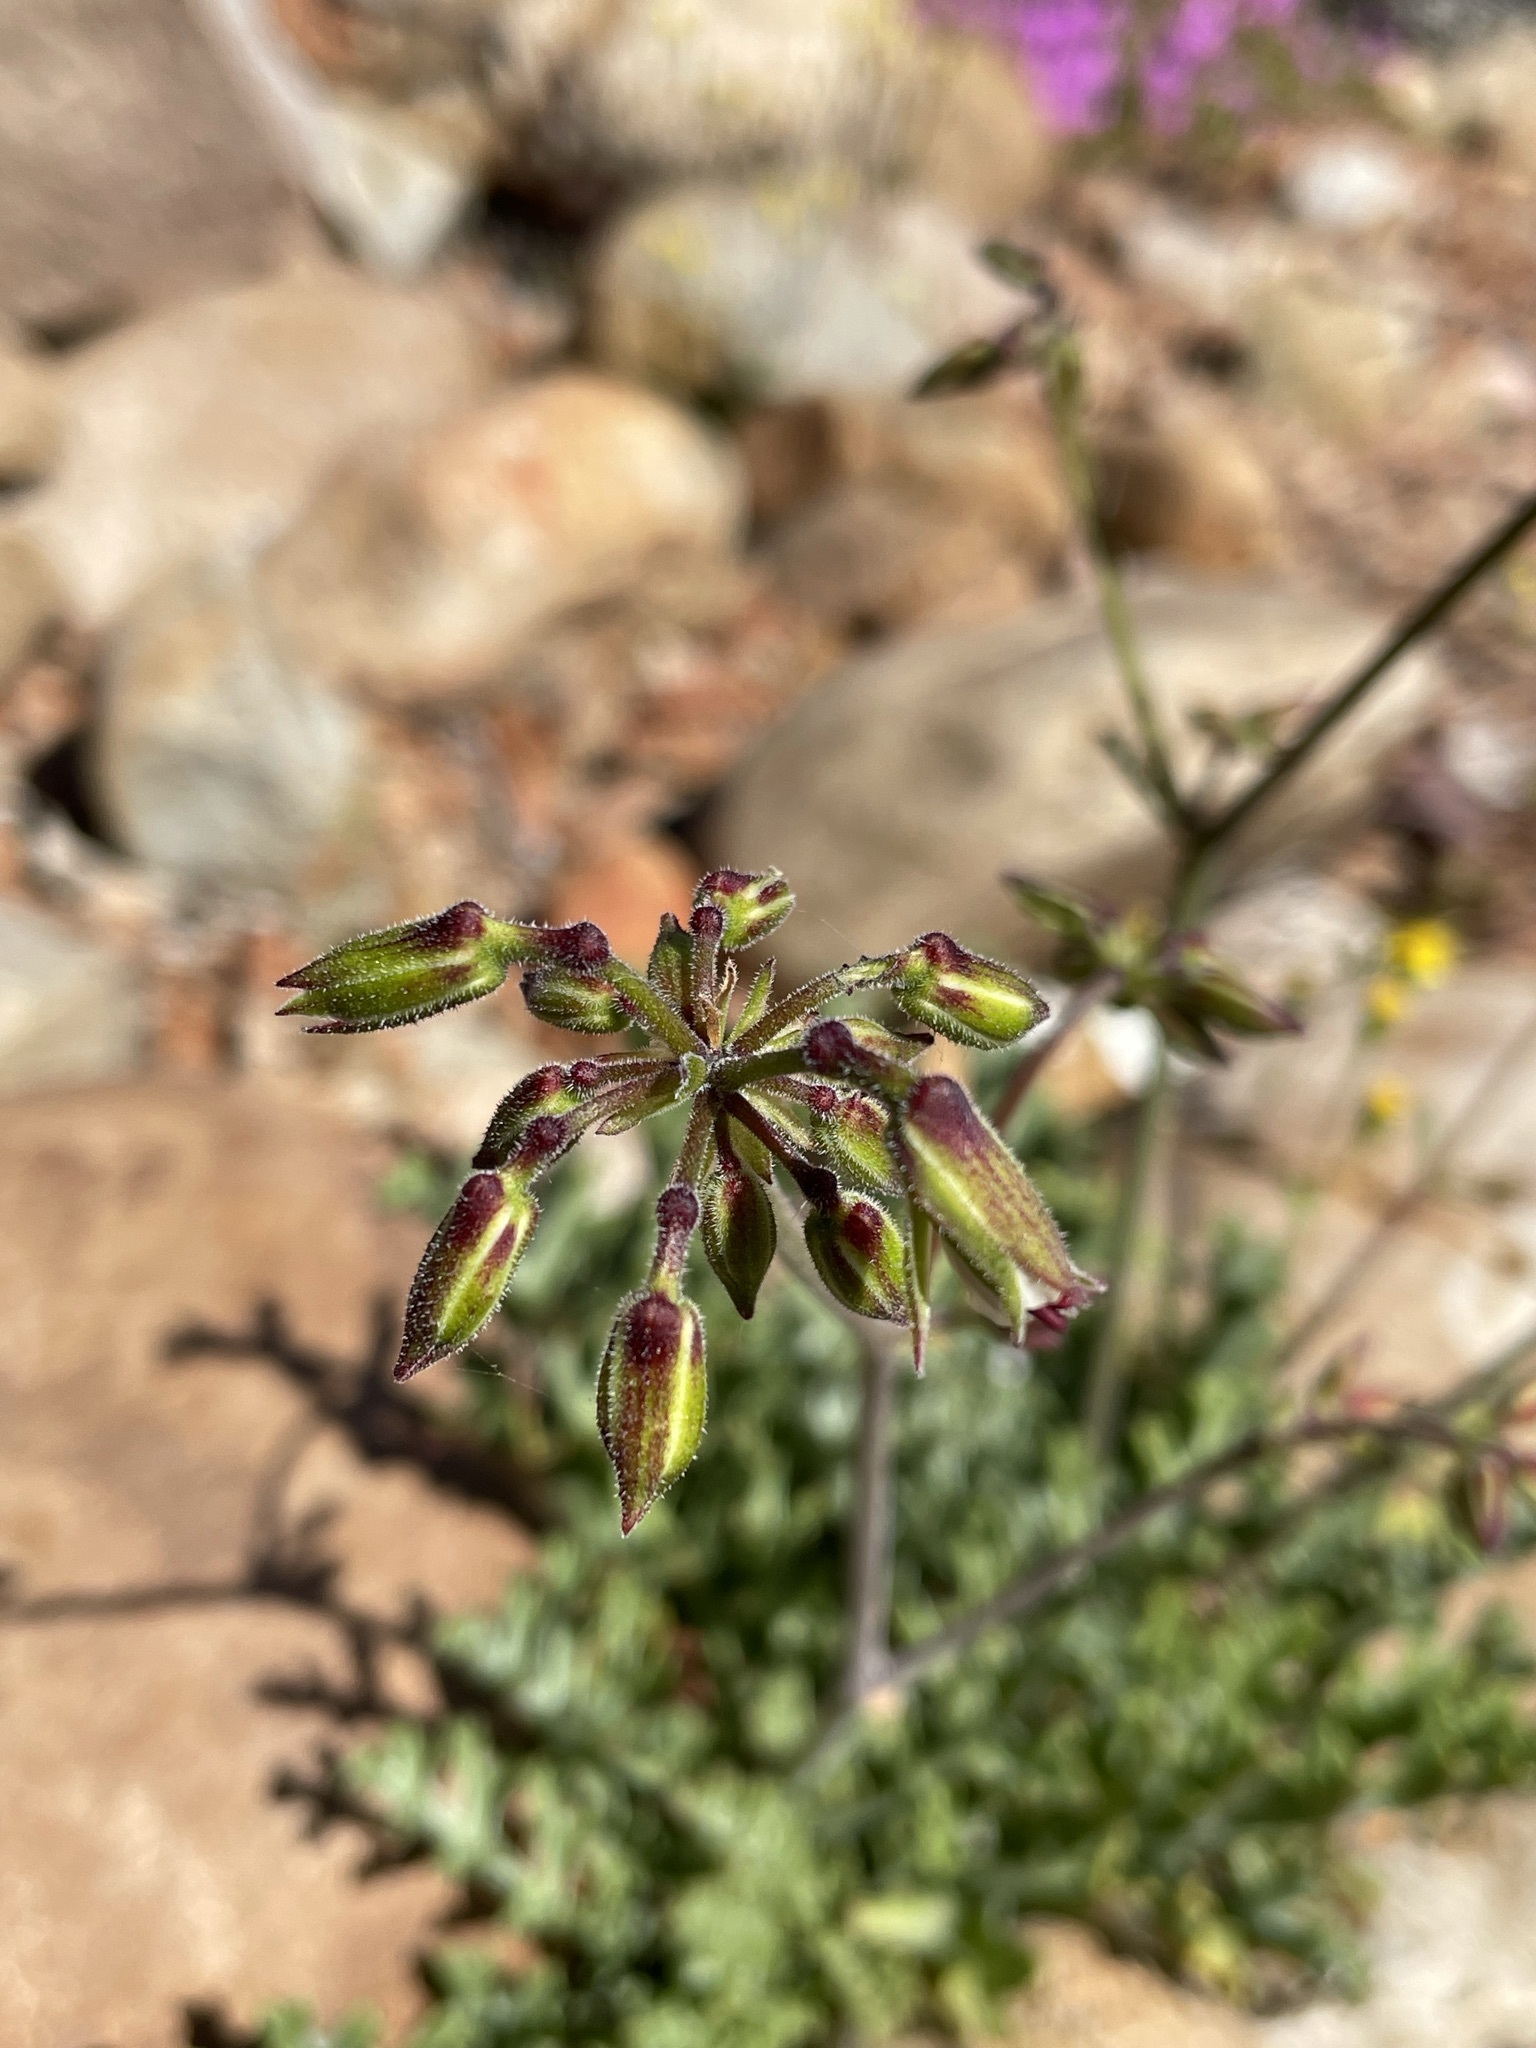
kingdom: Plantae
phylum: Tracheophyta
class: Magnoliopsida
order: Geraniales
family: Geraniaceae
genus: Pelargonium
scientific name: Pelargonium karooescens
